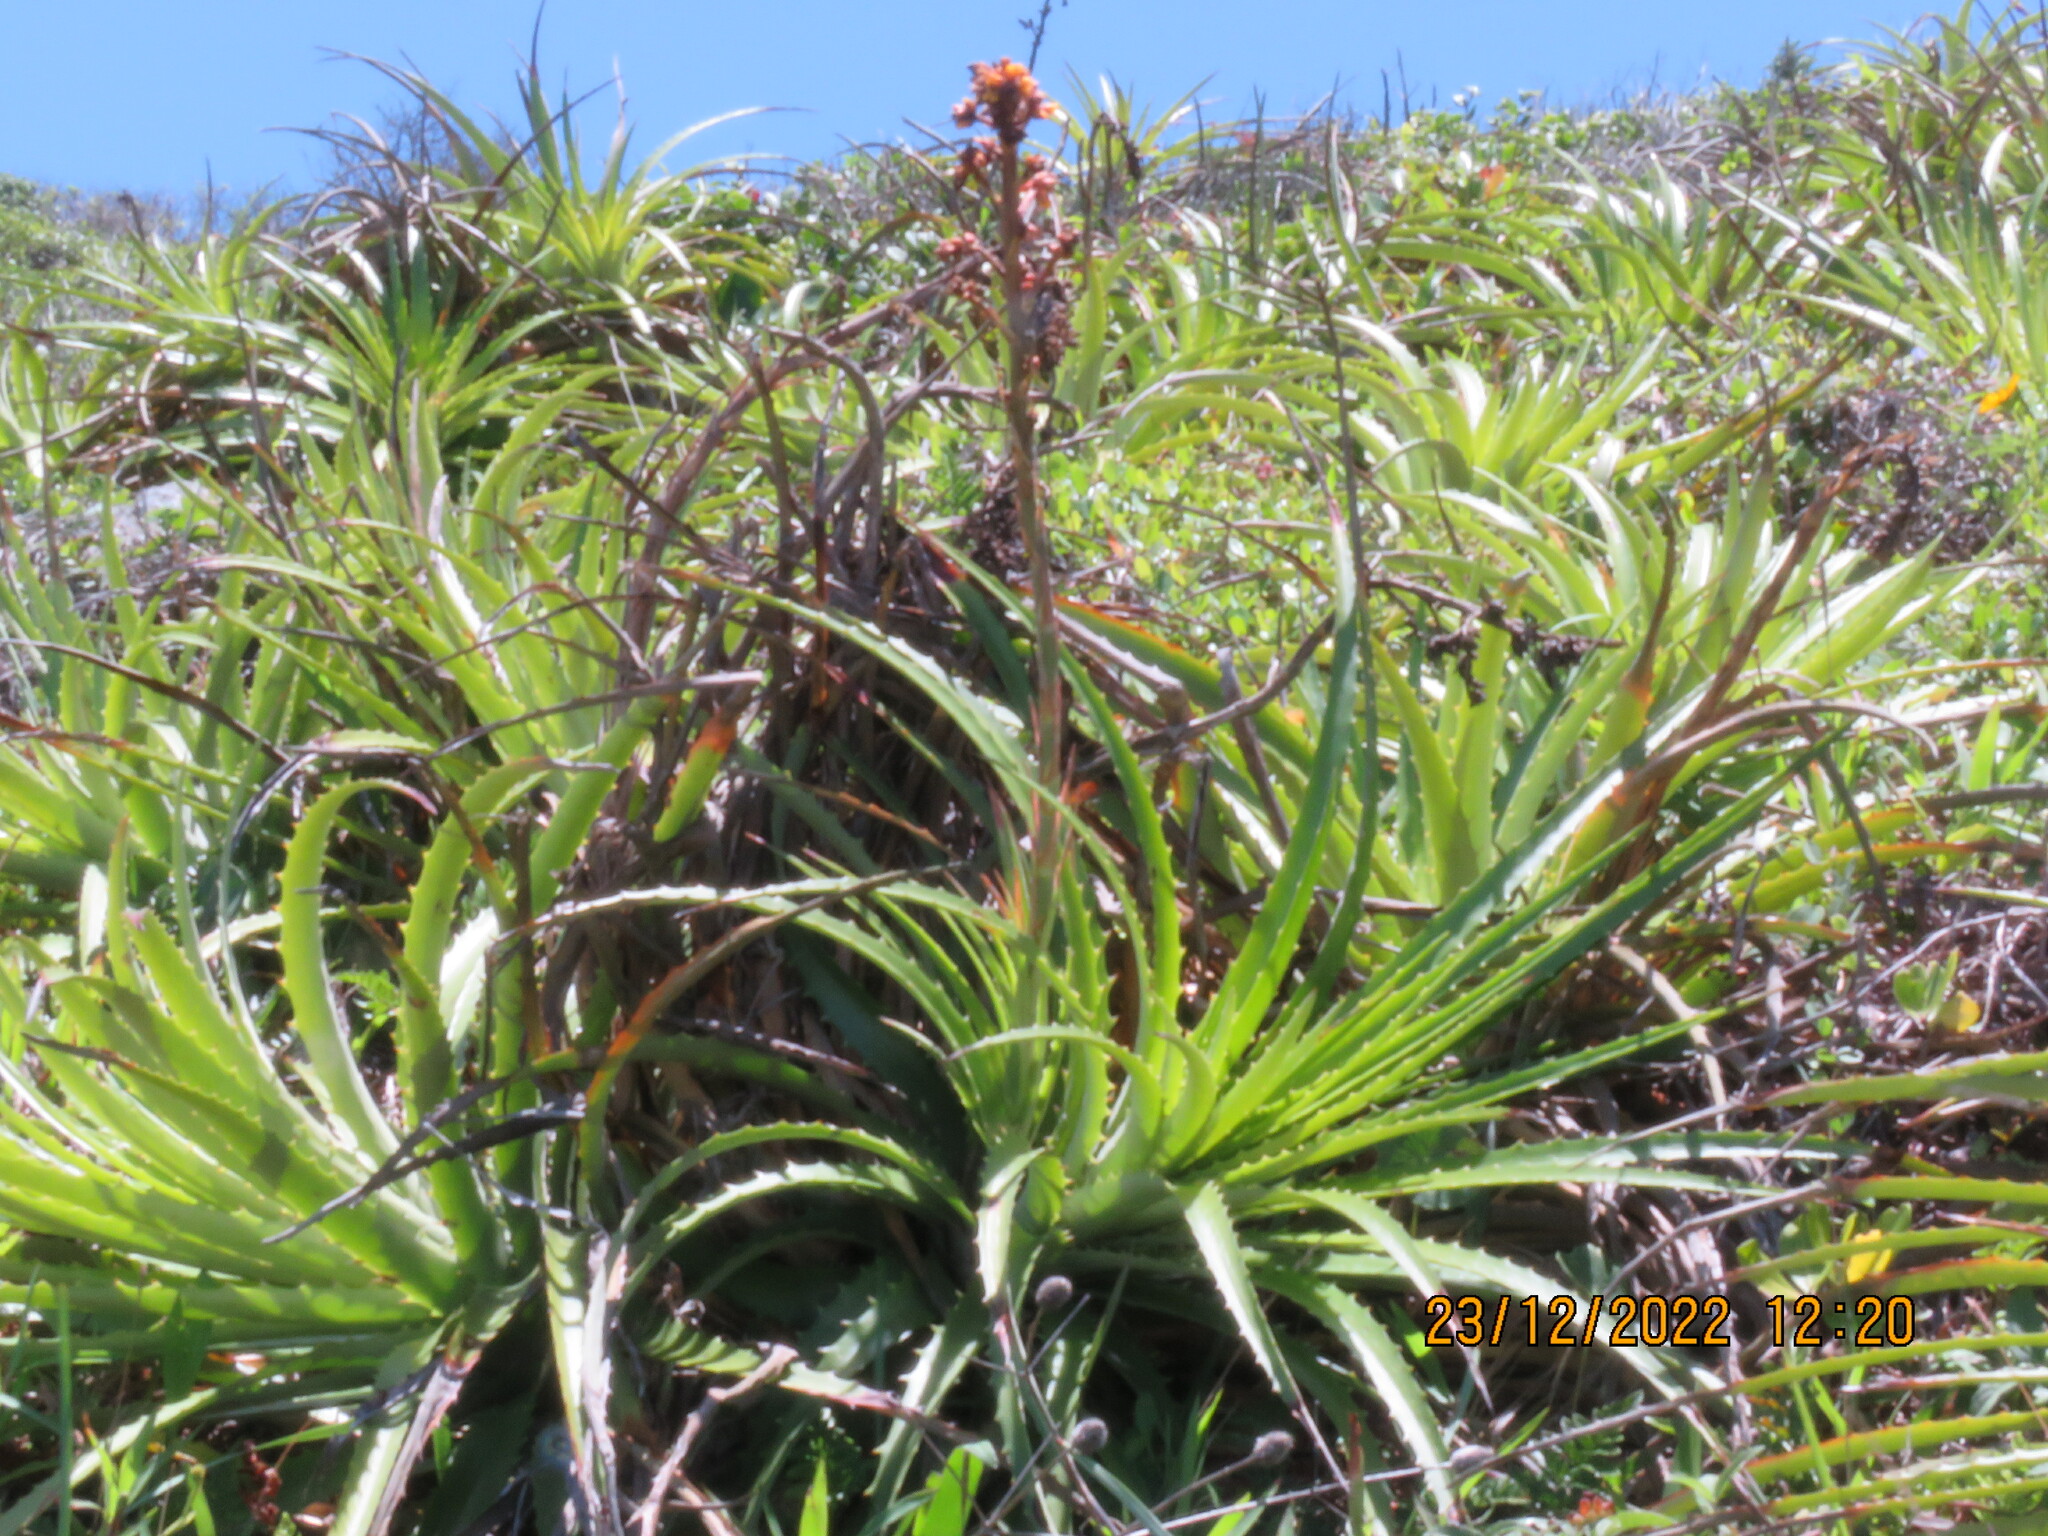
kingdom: Plantae
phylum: Tracheophyta
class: Liliopsida
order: Poales
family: Bromeliaceae
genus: Dyckia
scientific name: Dyckia encholirioides
